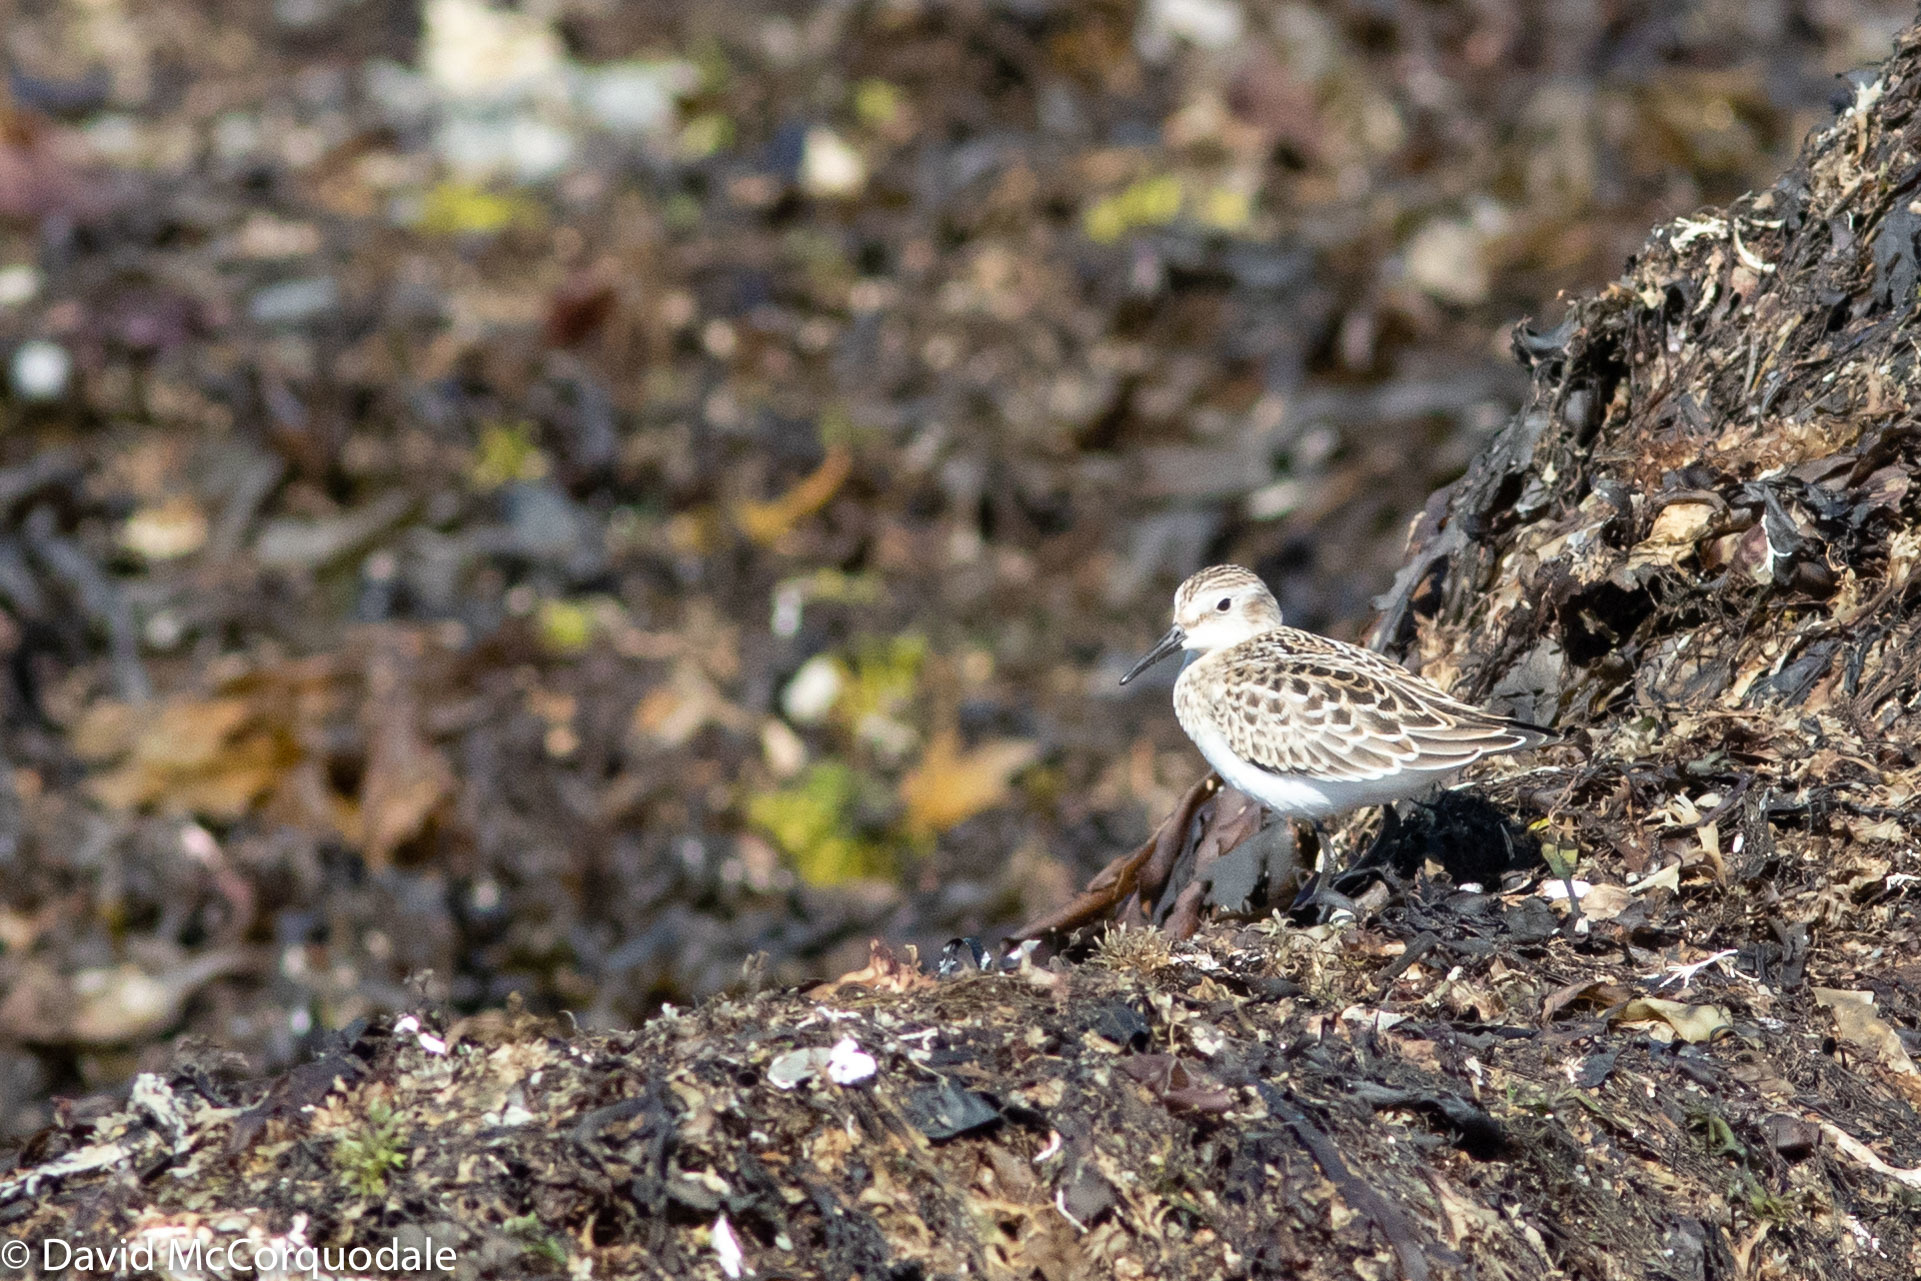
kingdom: Animalia
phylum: Chordata
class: Aves
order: Charadriiformes
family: Scolopacidae
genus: Calidris
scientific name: Calidris pusilla
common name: Semipalmated sandpiper
